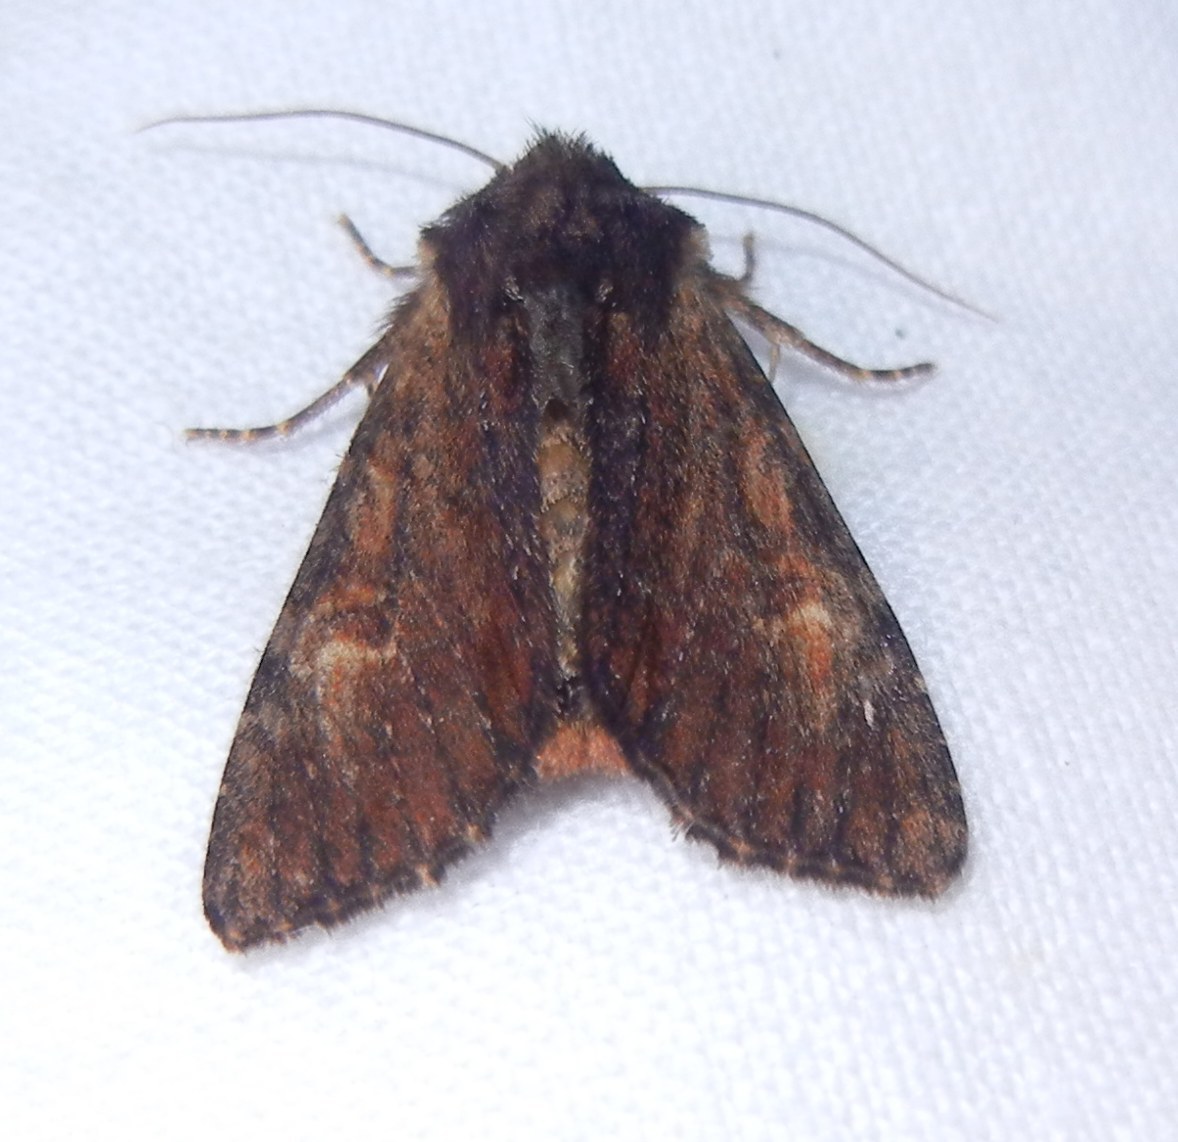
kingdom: Animalia
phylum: Arthropoda
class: Insecta
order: Lepidoptera
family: Noctuidae
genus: Apamea
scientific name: Apamea crenata
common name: Clouded-bordered brindle
